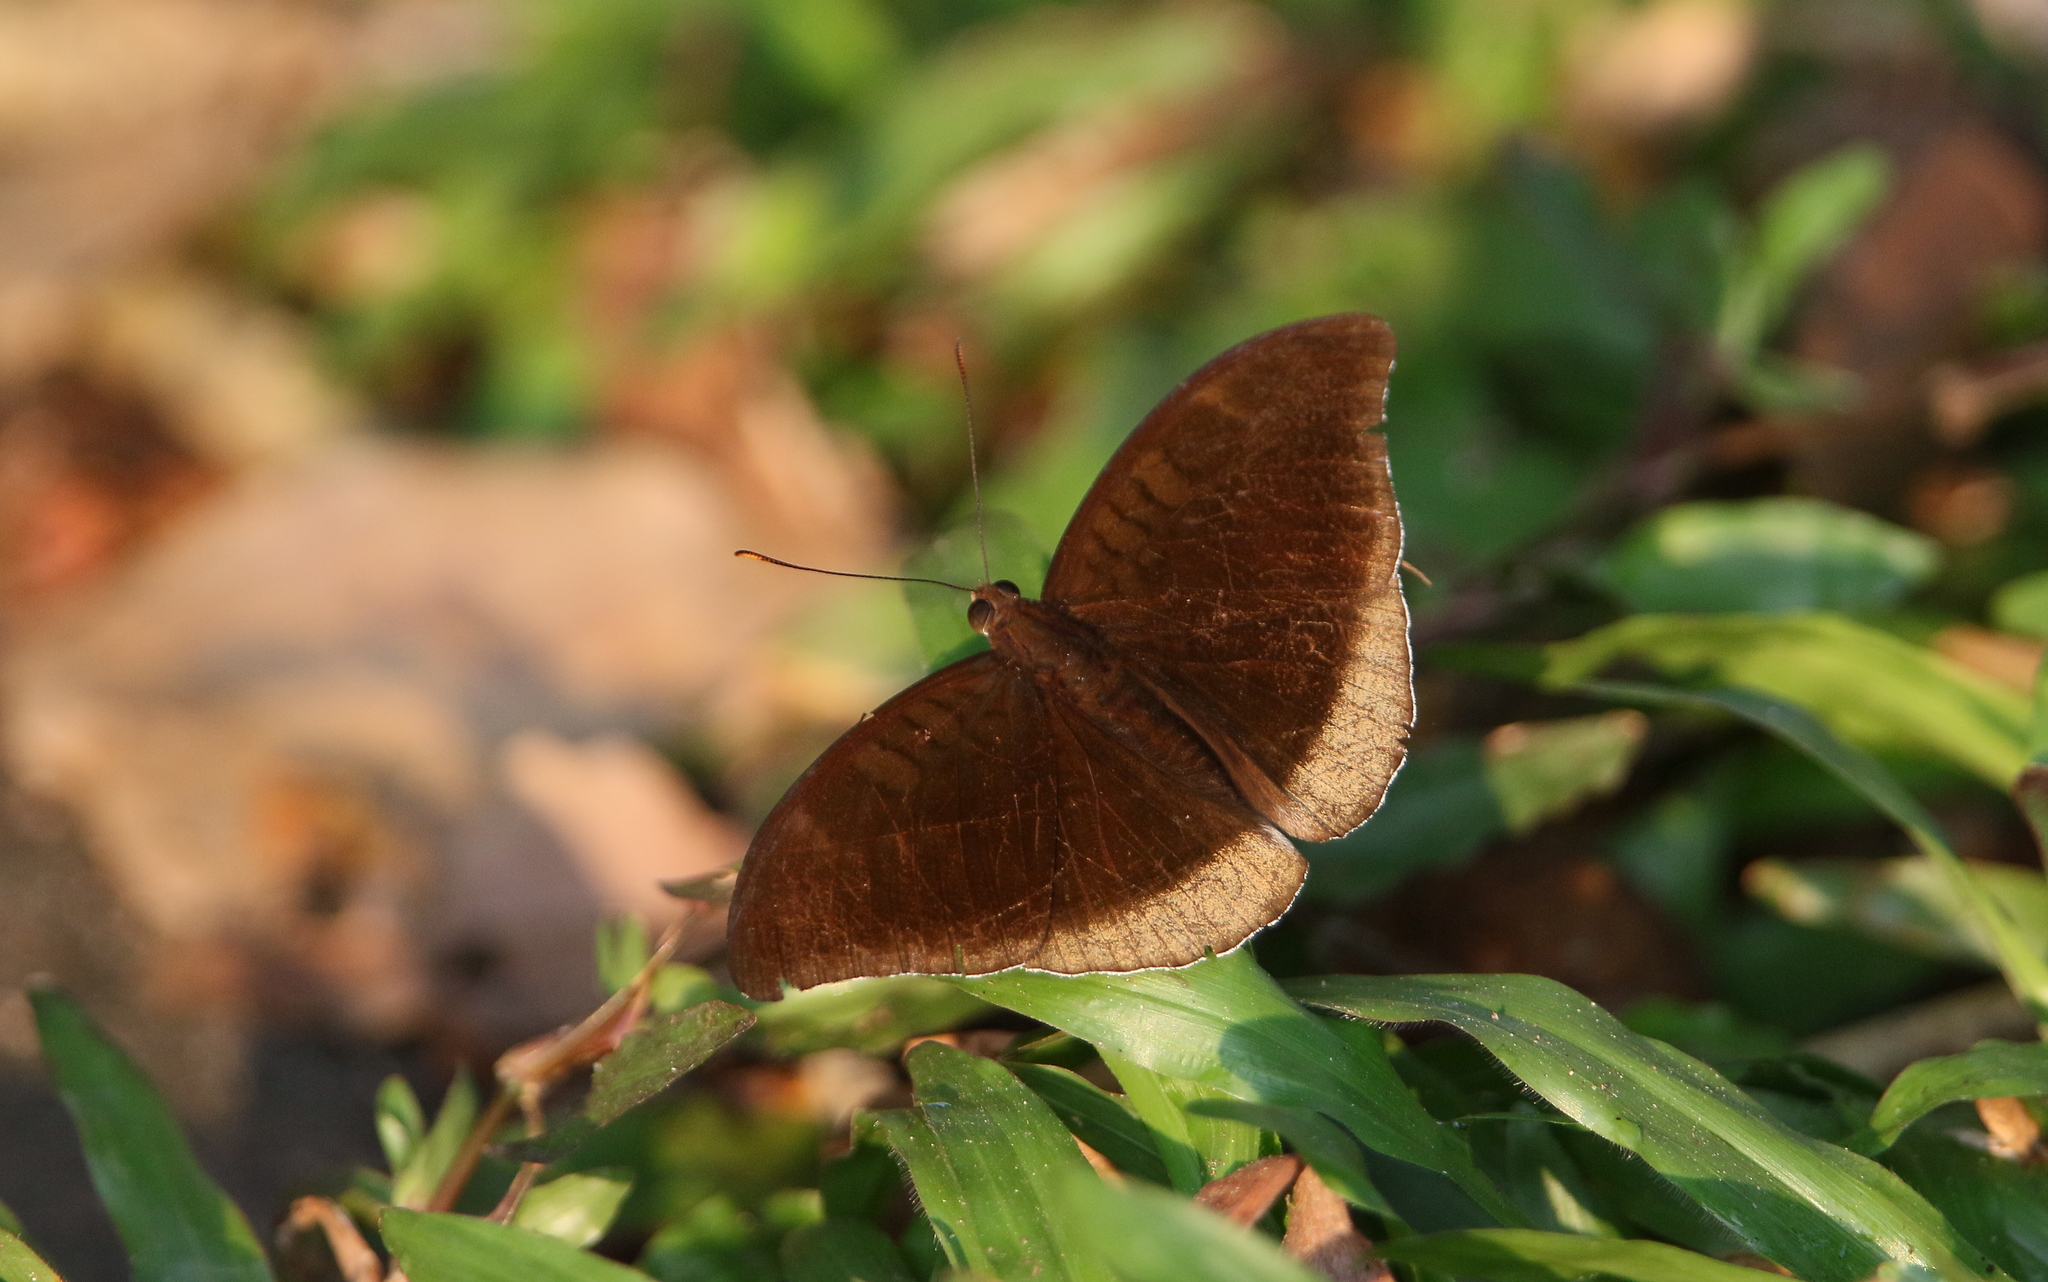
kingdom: Animalia
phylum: Arthropoda
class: Insecta
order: Lepidoptera
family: Nymphalidae
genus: Tanaecia
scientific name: Tanaecia lepidea
